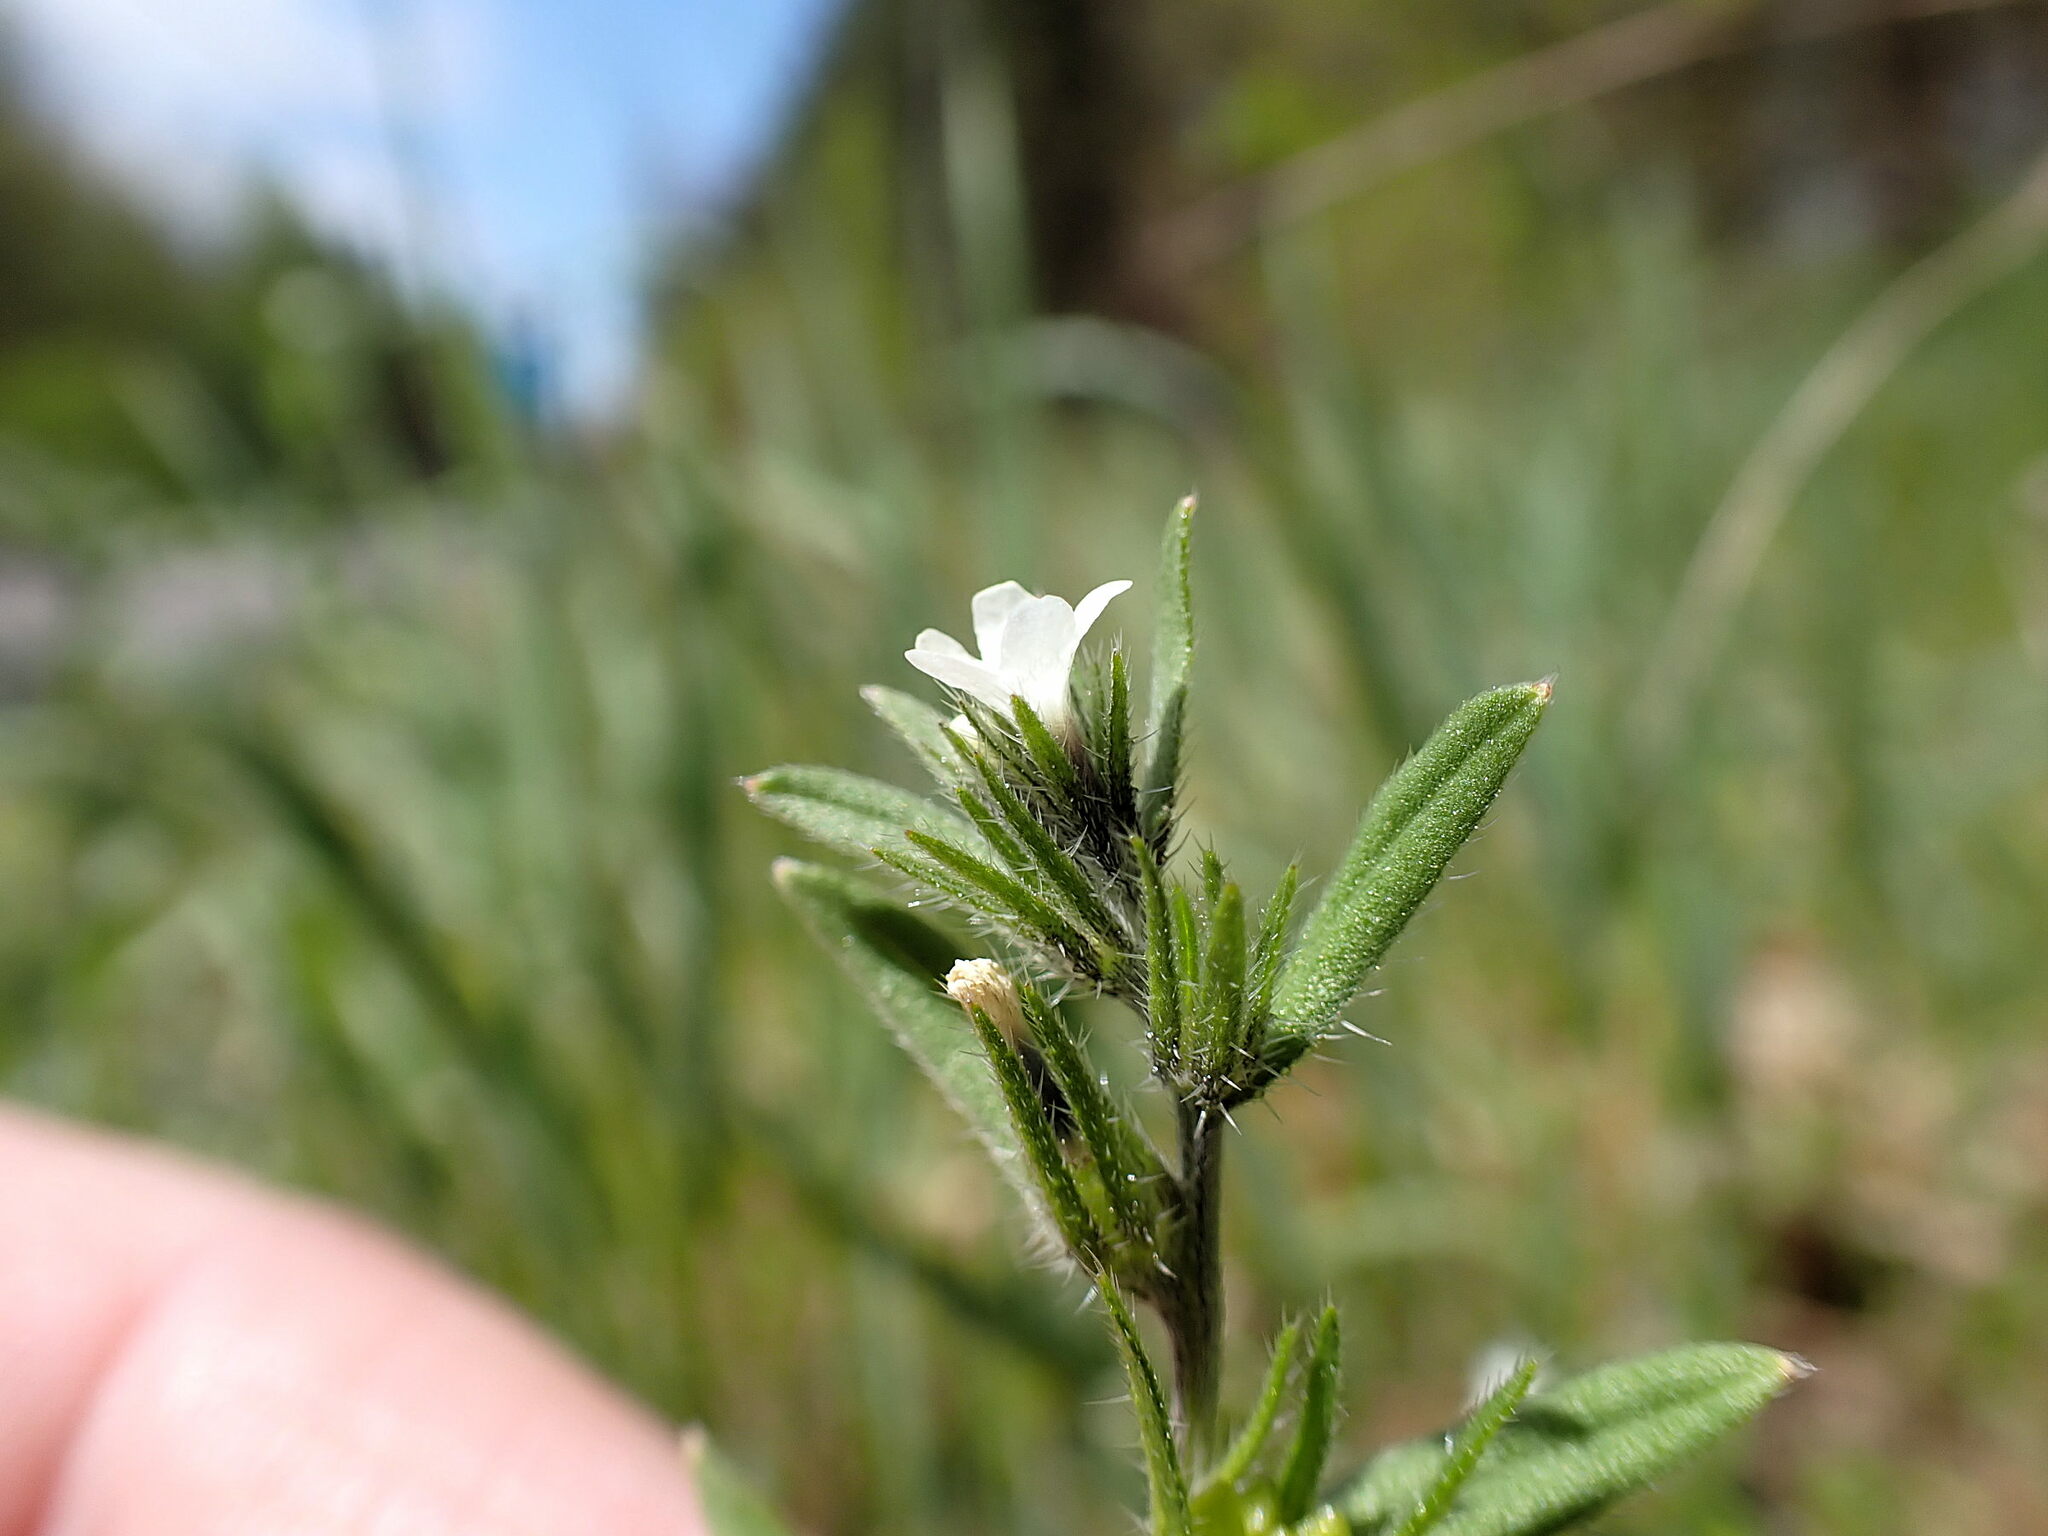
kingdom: Plantae
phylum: Tracheophyta
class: Magnoliopsida
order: Boraginales
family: Boraginaceae
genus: Buglossoides
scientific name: Buglossoides arvensis
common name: Corn gromwell
